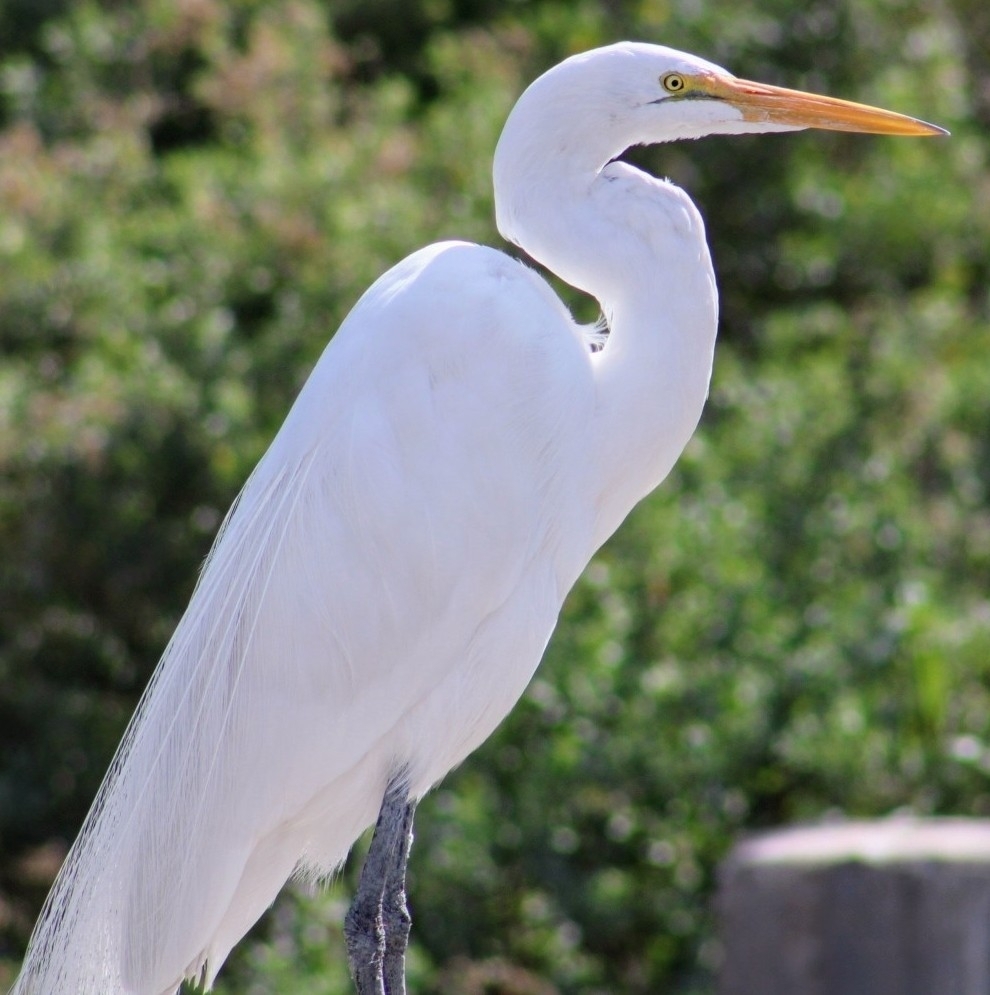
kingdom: Animalia
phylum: Chordata
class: Aves
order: Pelecaniformes
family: Ardeidae
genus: Ardea
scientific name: Ardea alba
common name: Great egret
